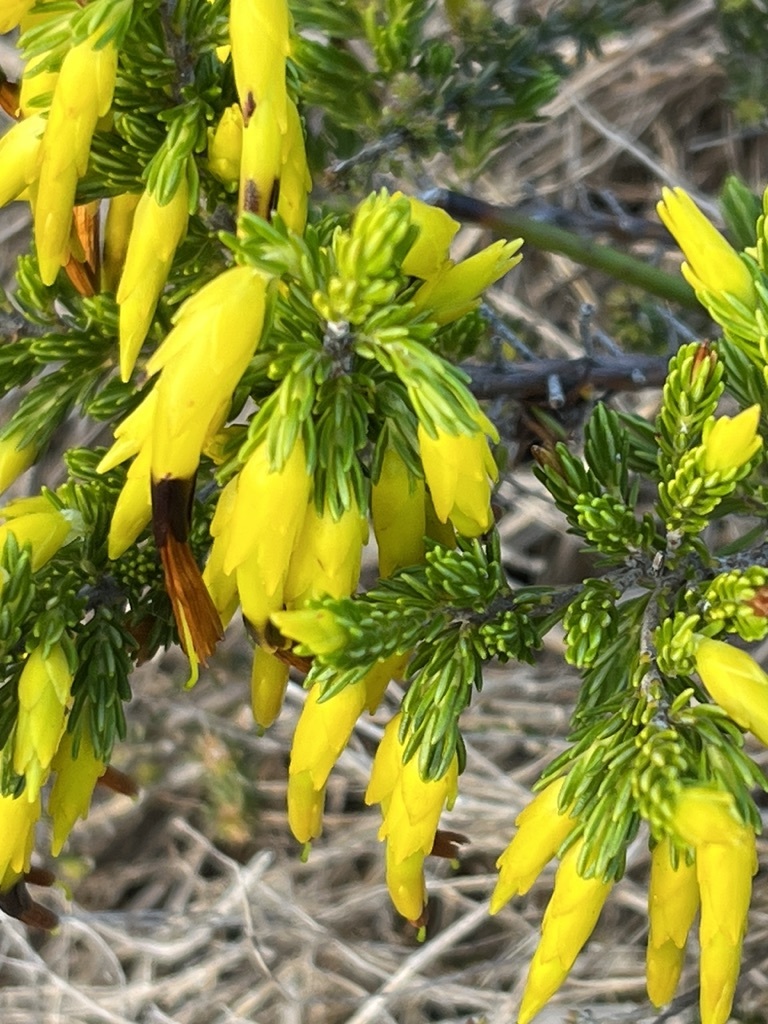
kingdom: Plantae
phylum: Tracheophyta
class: Magnoliopsida
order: Ericales
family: Ericaceae
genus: Erica
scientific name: Erica melastoma
